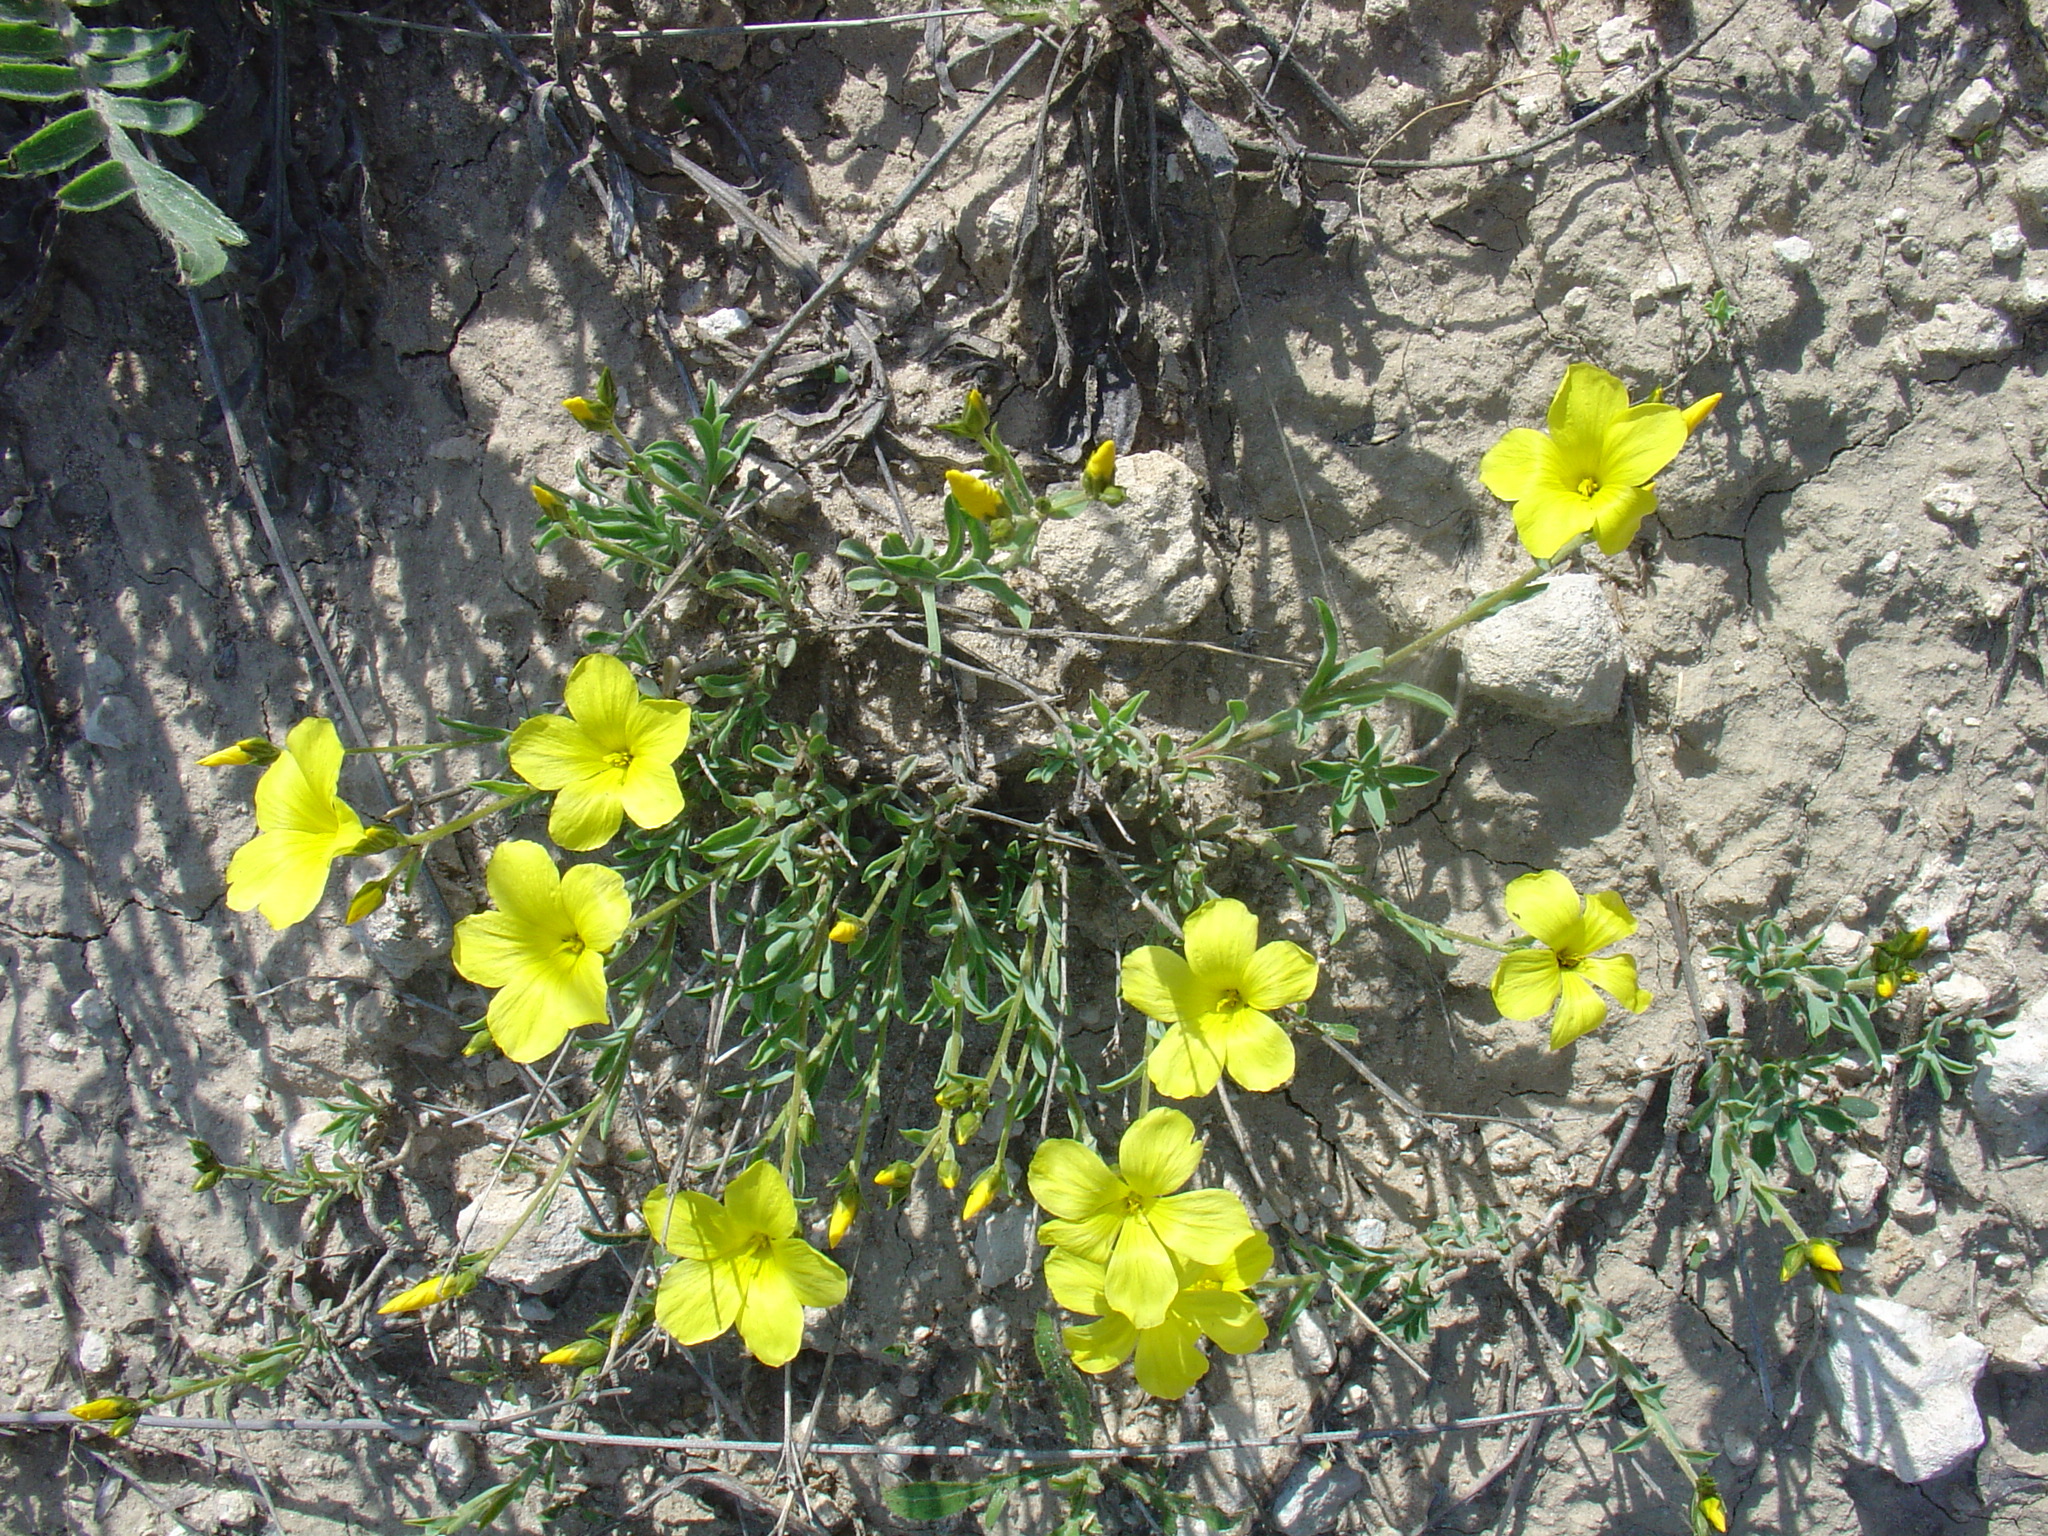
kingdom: Plantae
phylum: Tracheophyta
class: Magnoliopsida
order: Malpighiales
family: Linaceae
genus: Linum
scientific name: Linum pallasianum
